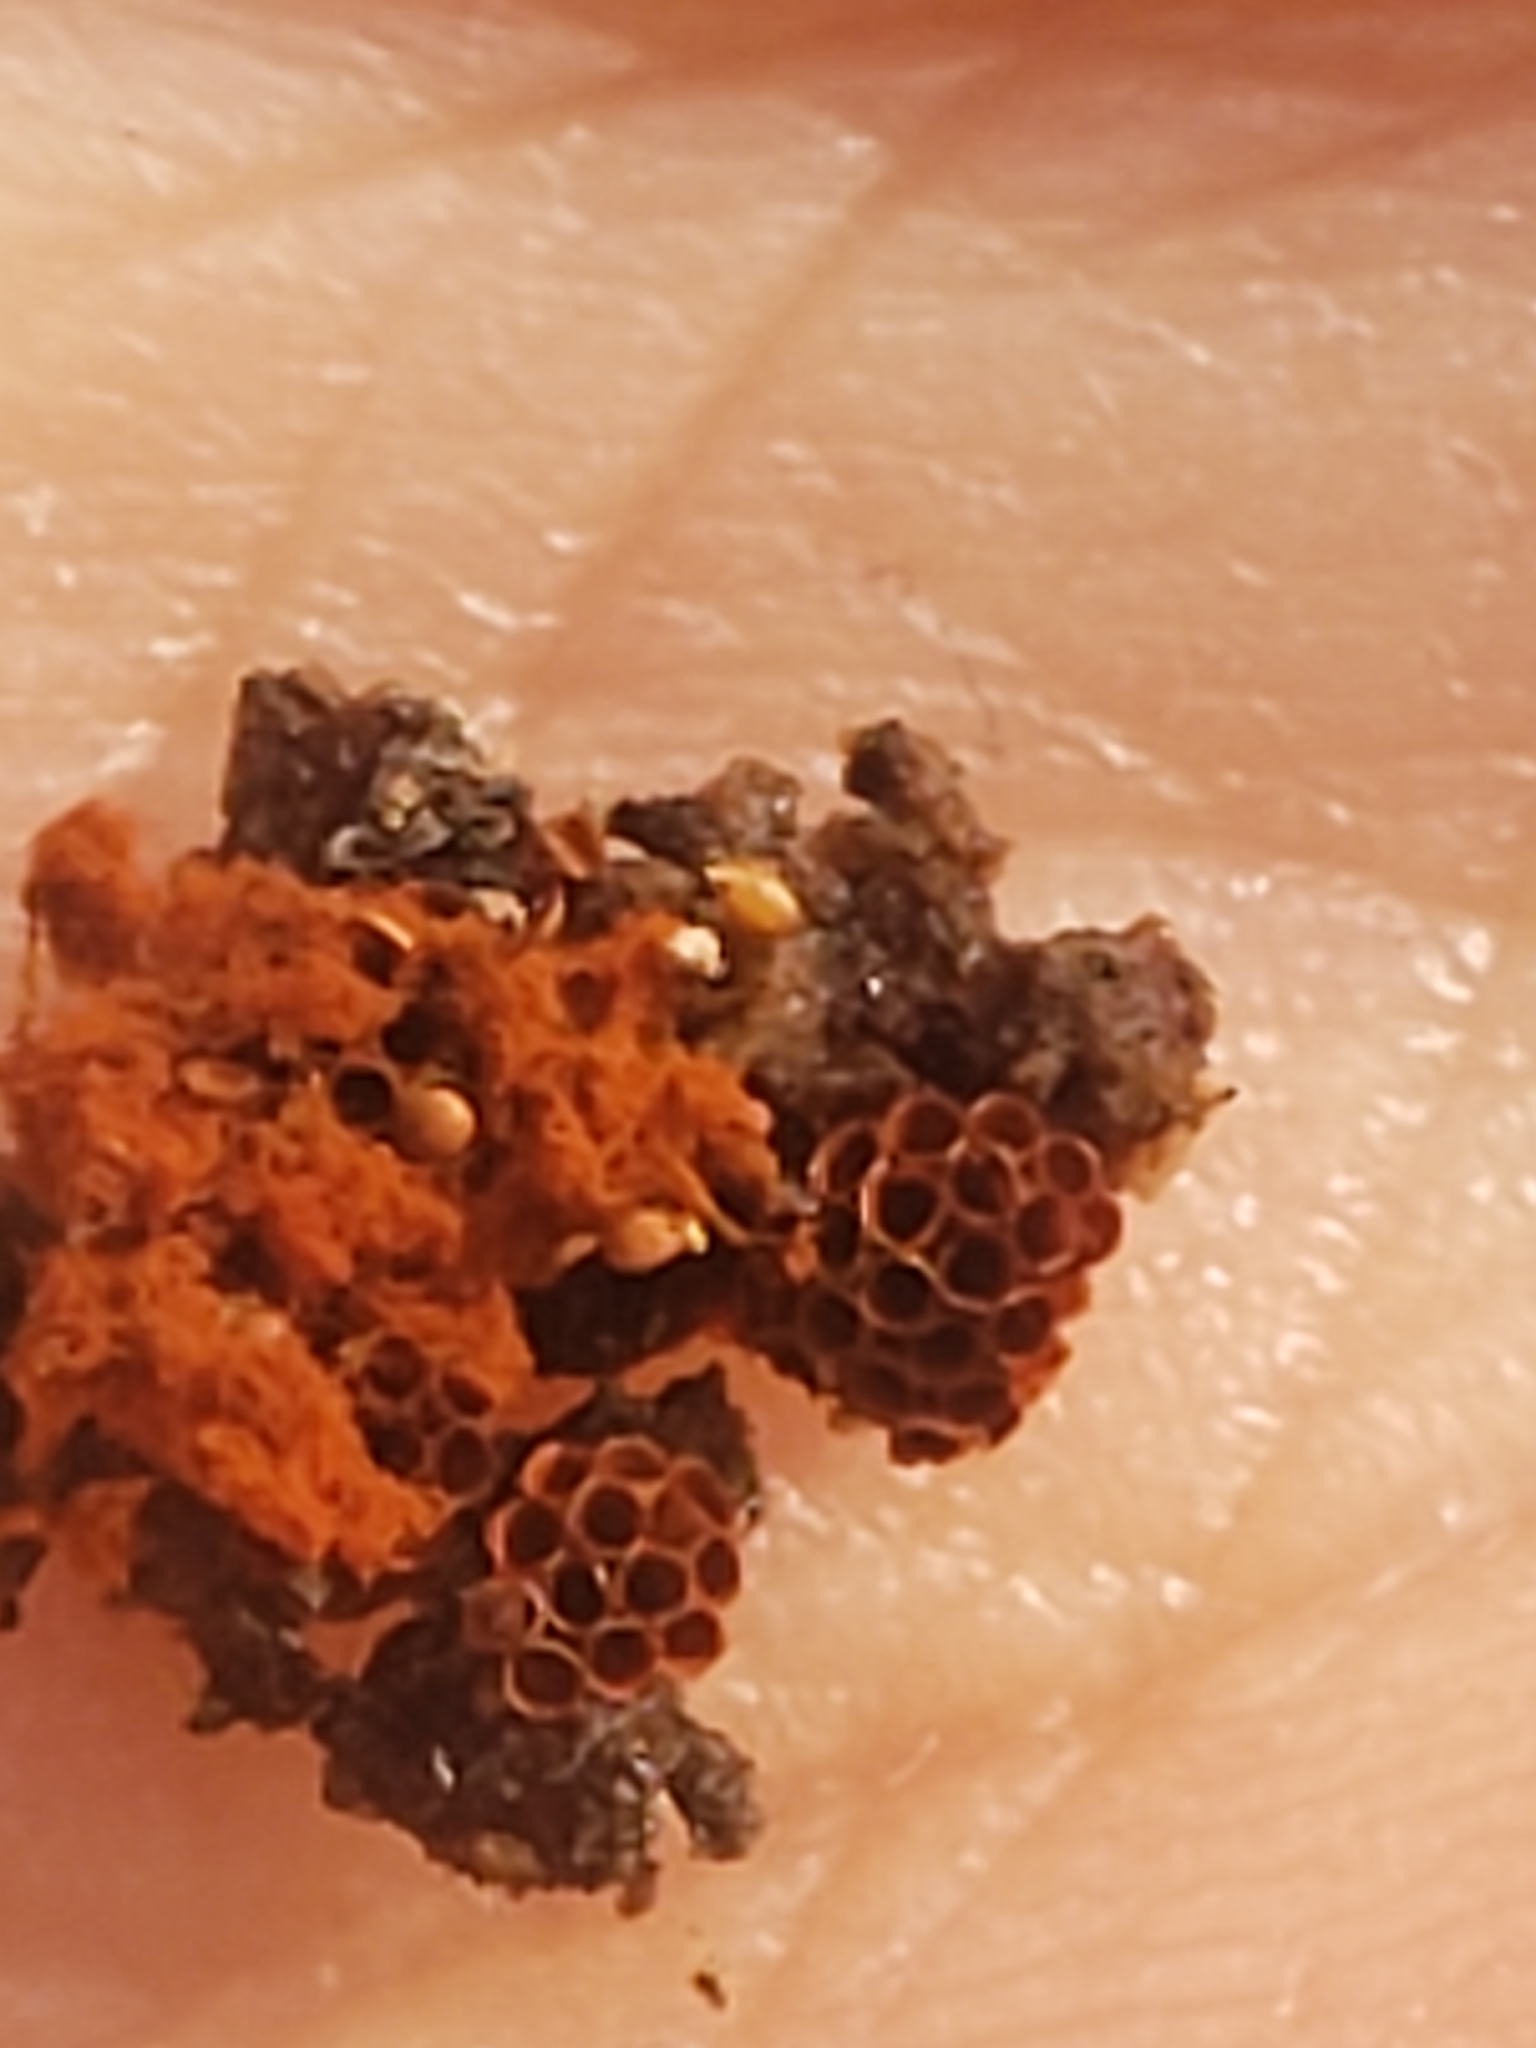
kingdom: Protozoa
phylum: Mycetozoa
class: Myxomycetes
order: Trichiales
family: Trichiaceae
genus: Metatrichia
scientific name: Metatrichia vesparia
